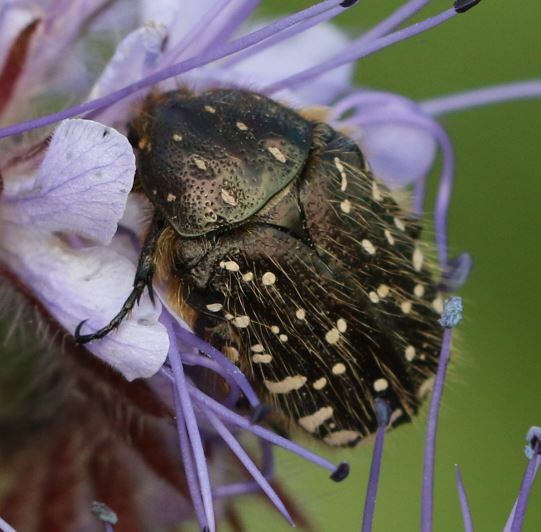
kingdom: Animalia
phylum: Arthropoda
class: Insecta
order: Coleoptera
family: Scarabaeidae
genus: Oxythyrea
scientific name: Oxythyrea funesta
